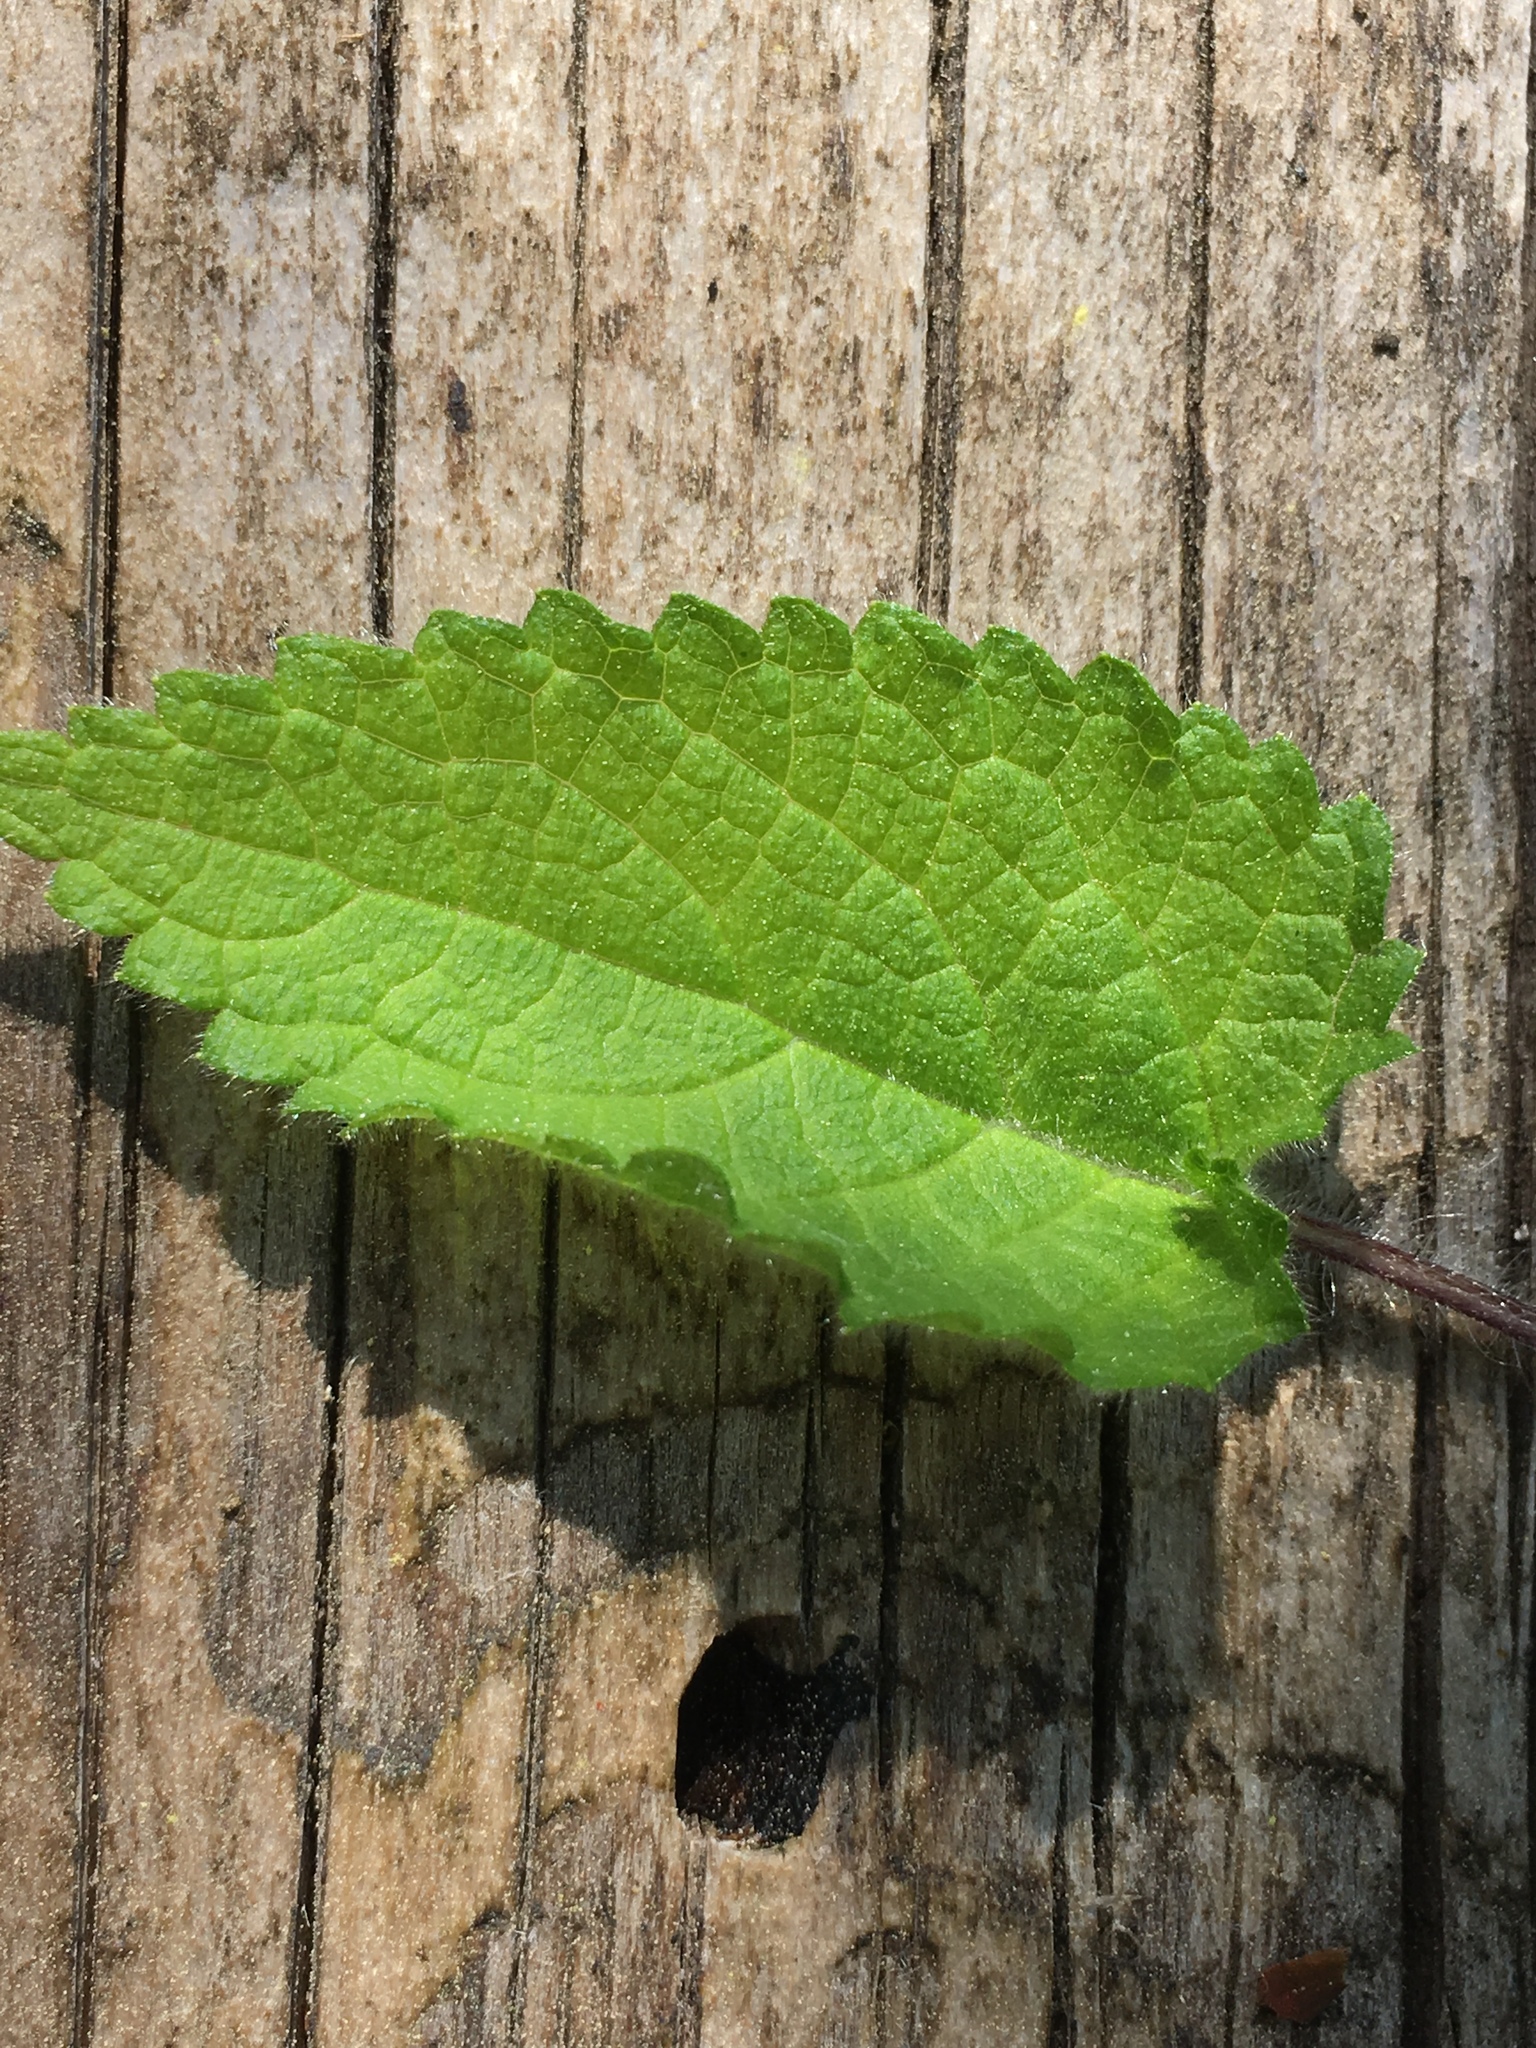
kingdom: Plantae
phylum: Tracheophyta
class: Magnoliopsida
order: Lamiales
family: Lamiaceae
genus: Stachys
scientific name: Stachys sylvatica
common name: Hedge woundwort
